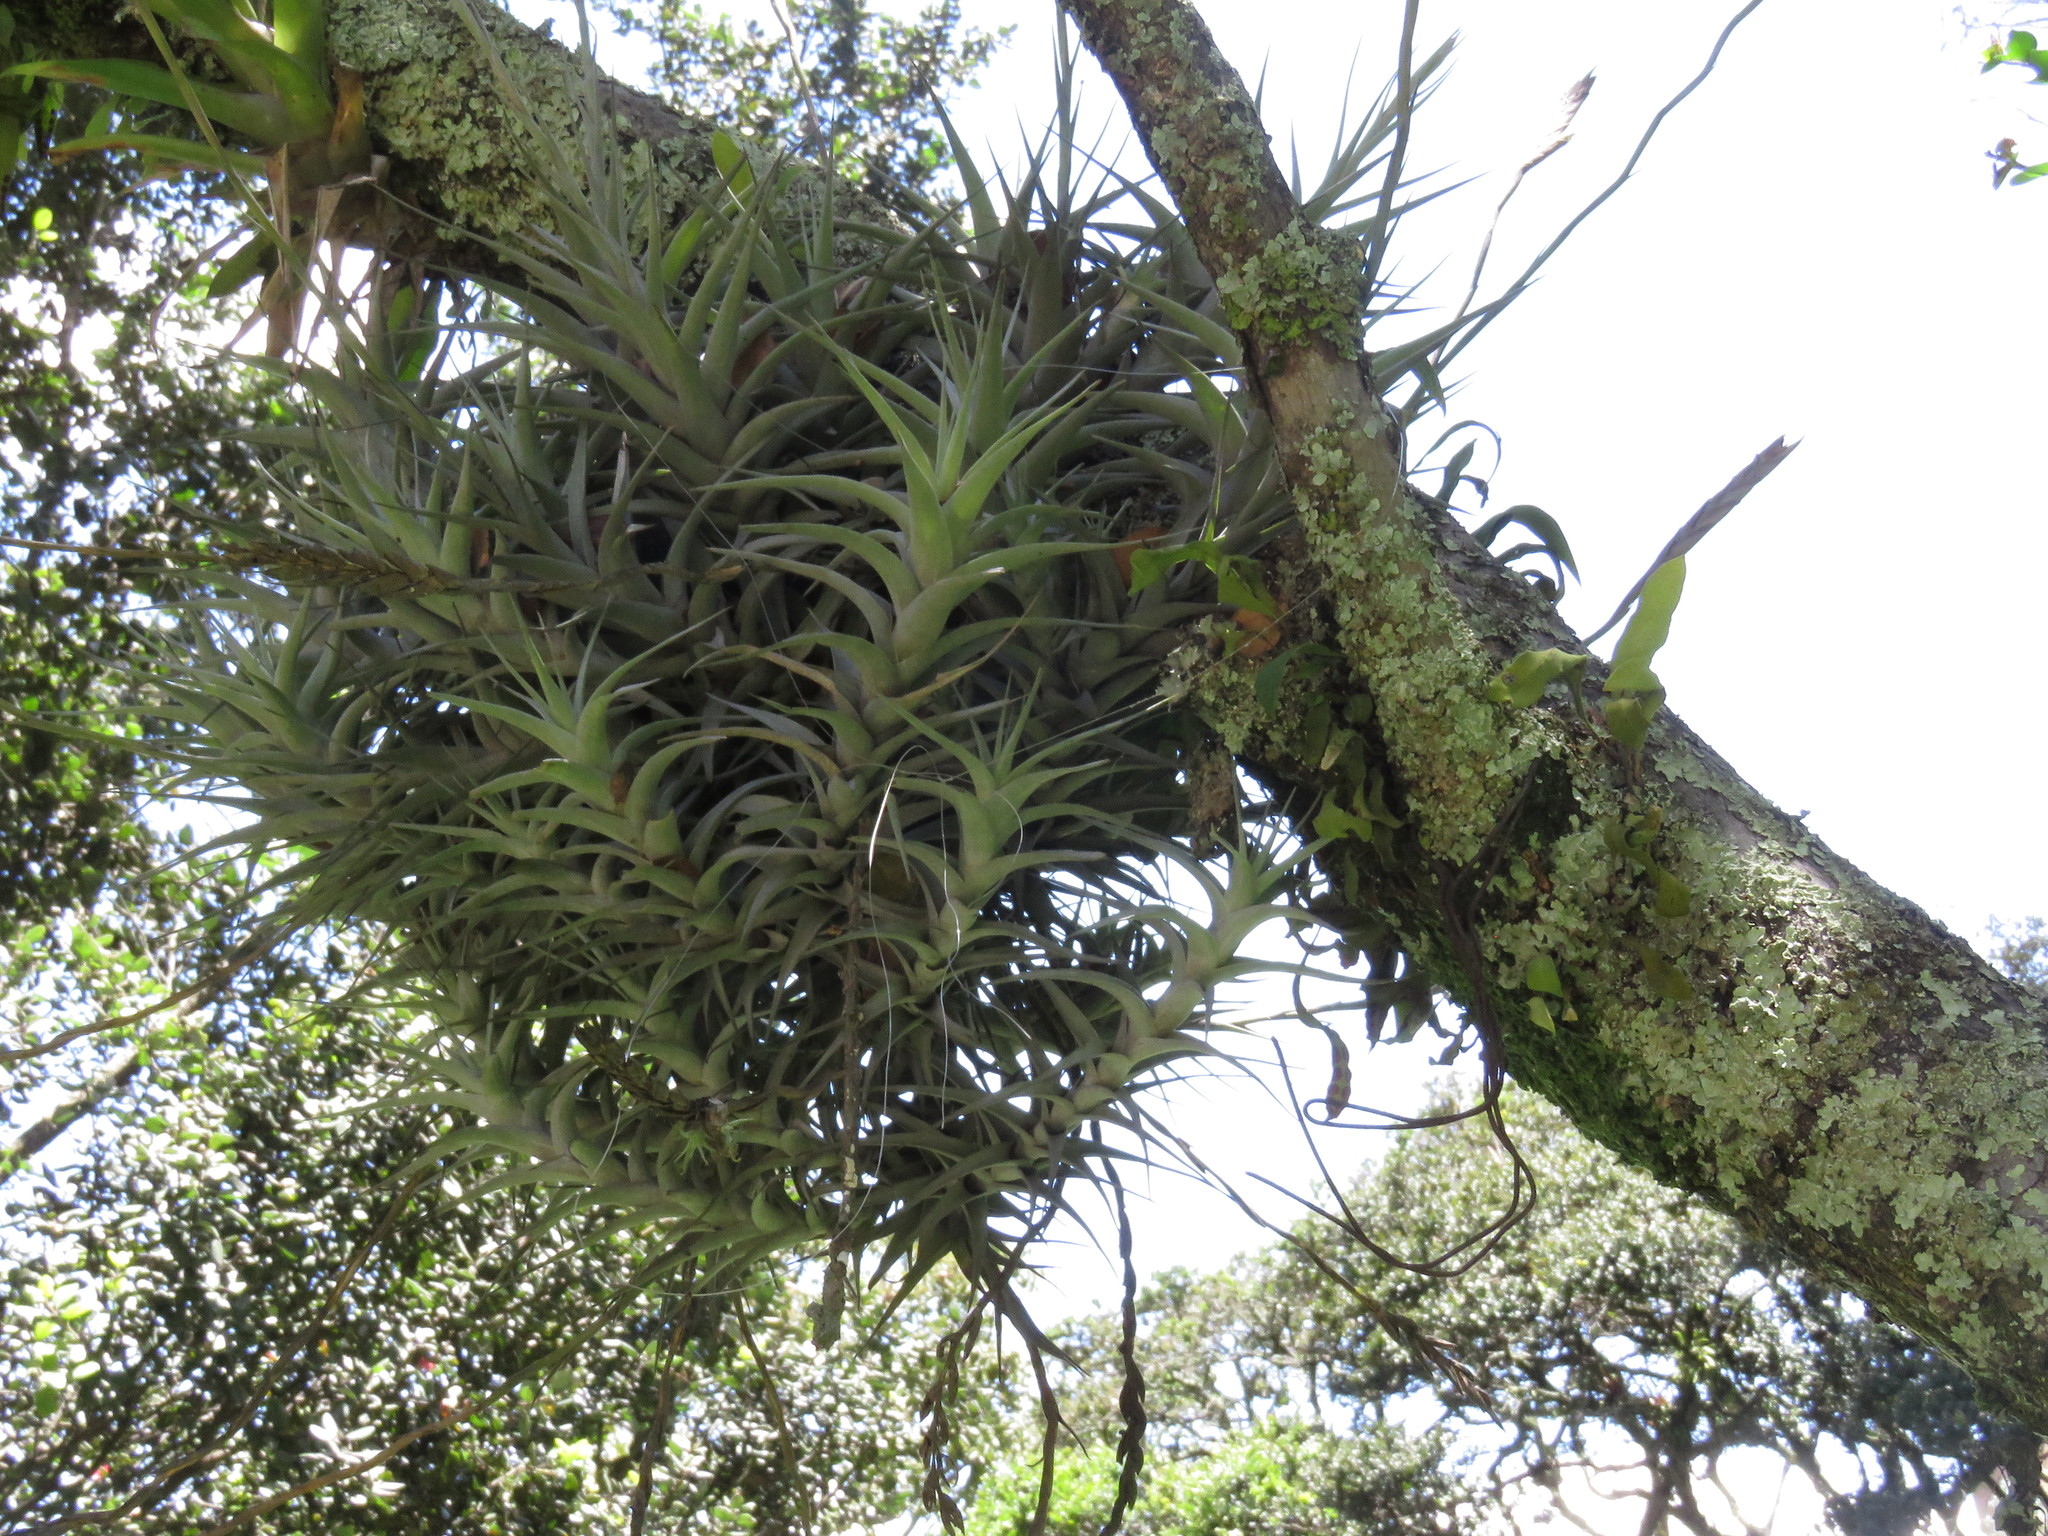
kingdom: Plantae
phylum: Tracheophyta
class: Liliopsida
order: Poales
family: Bromeliaceae
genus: Tillandsia
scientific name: Tillandsia incarnata
